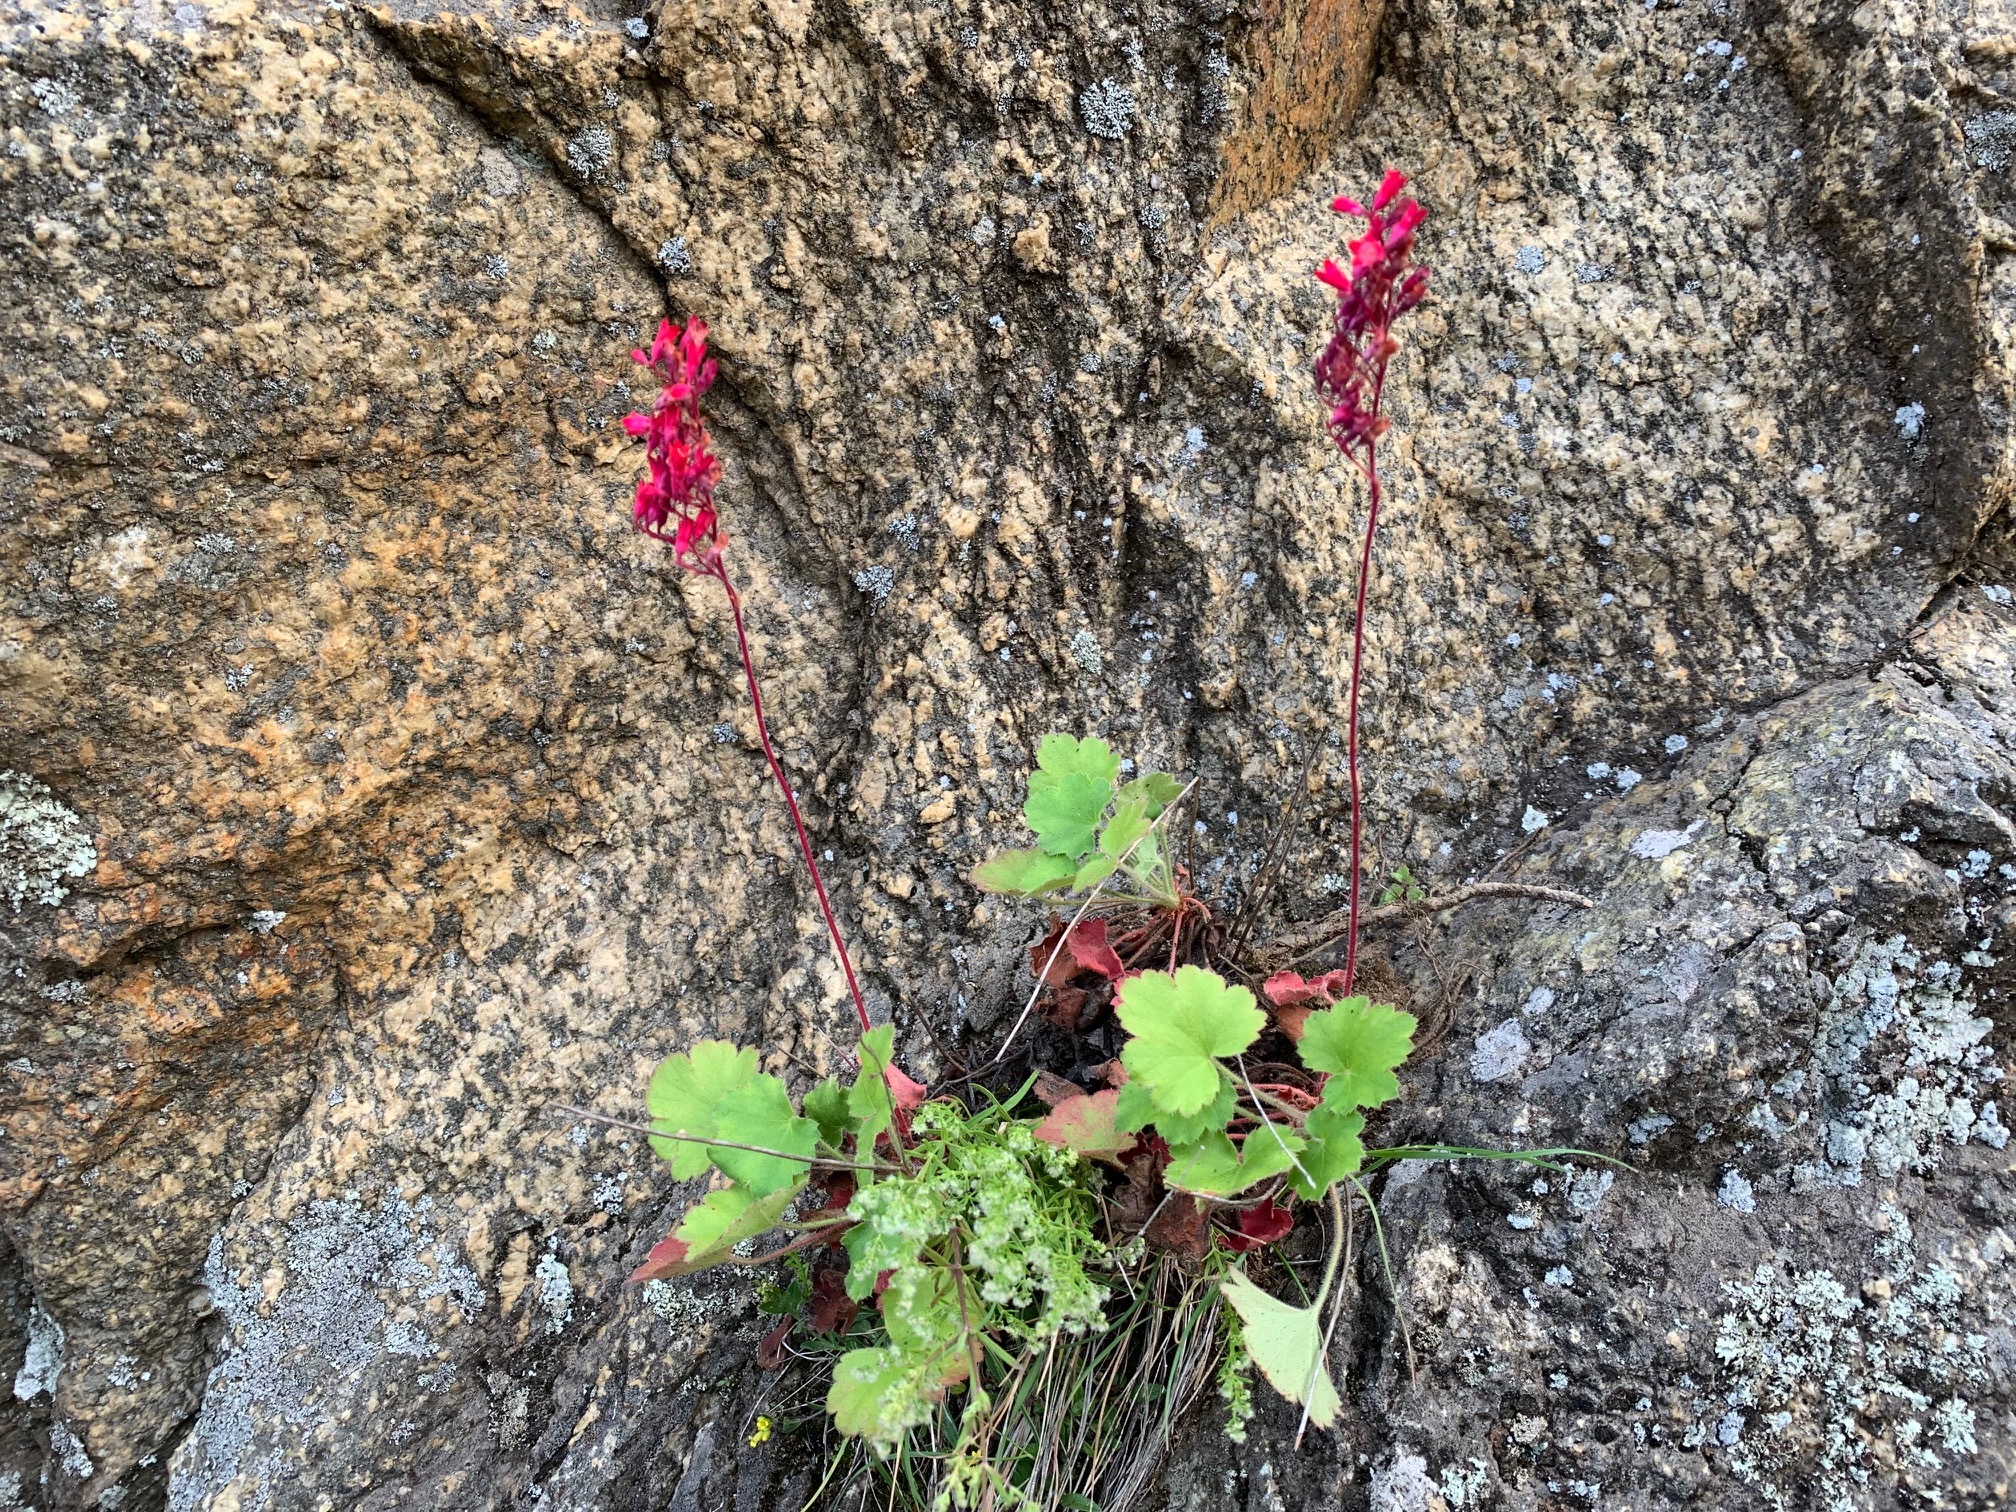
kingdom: Plantae
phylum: Tracheophyta
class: Magnoliopsida
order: Saxifragales
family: Saxifragaceae
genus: Heuchera
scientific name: Heuchera sanguinea
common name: Coralbells
